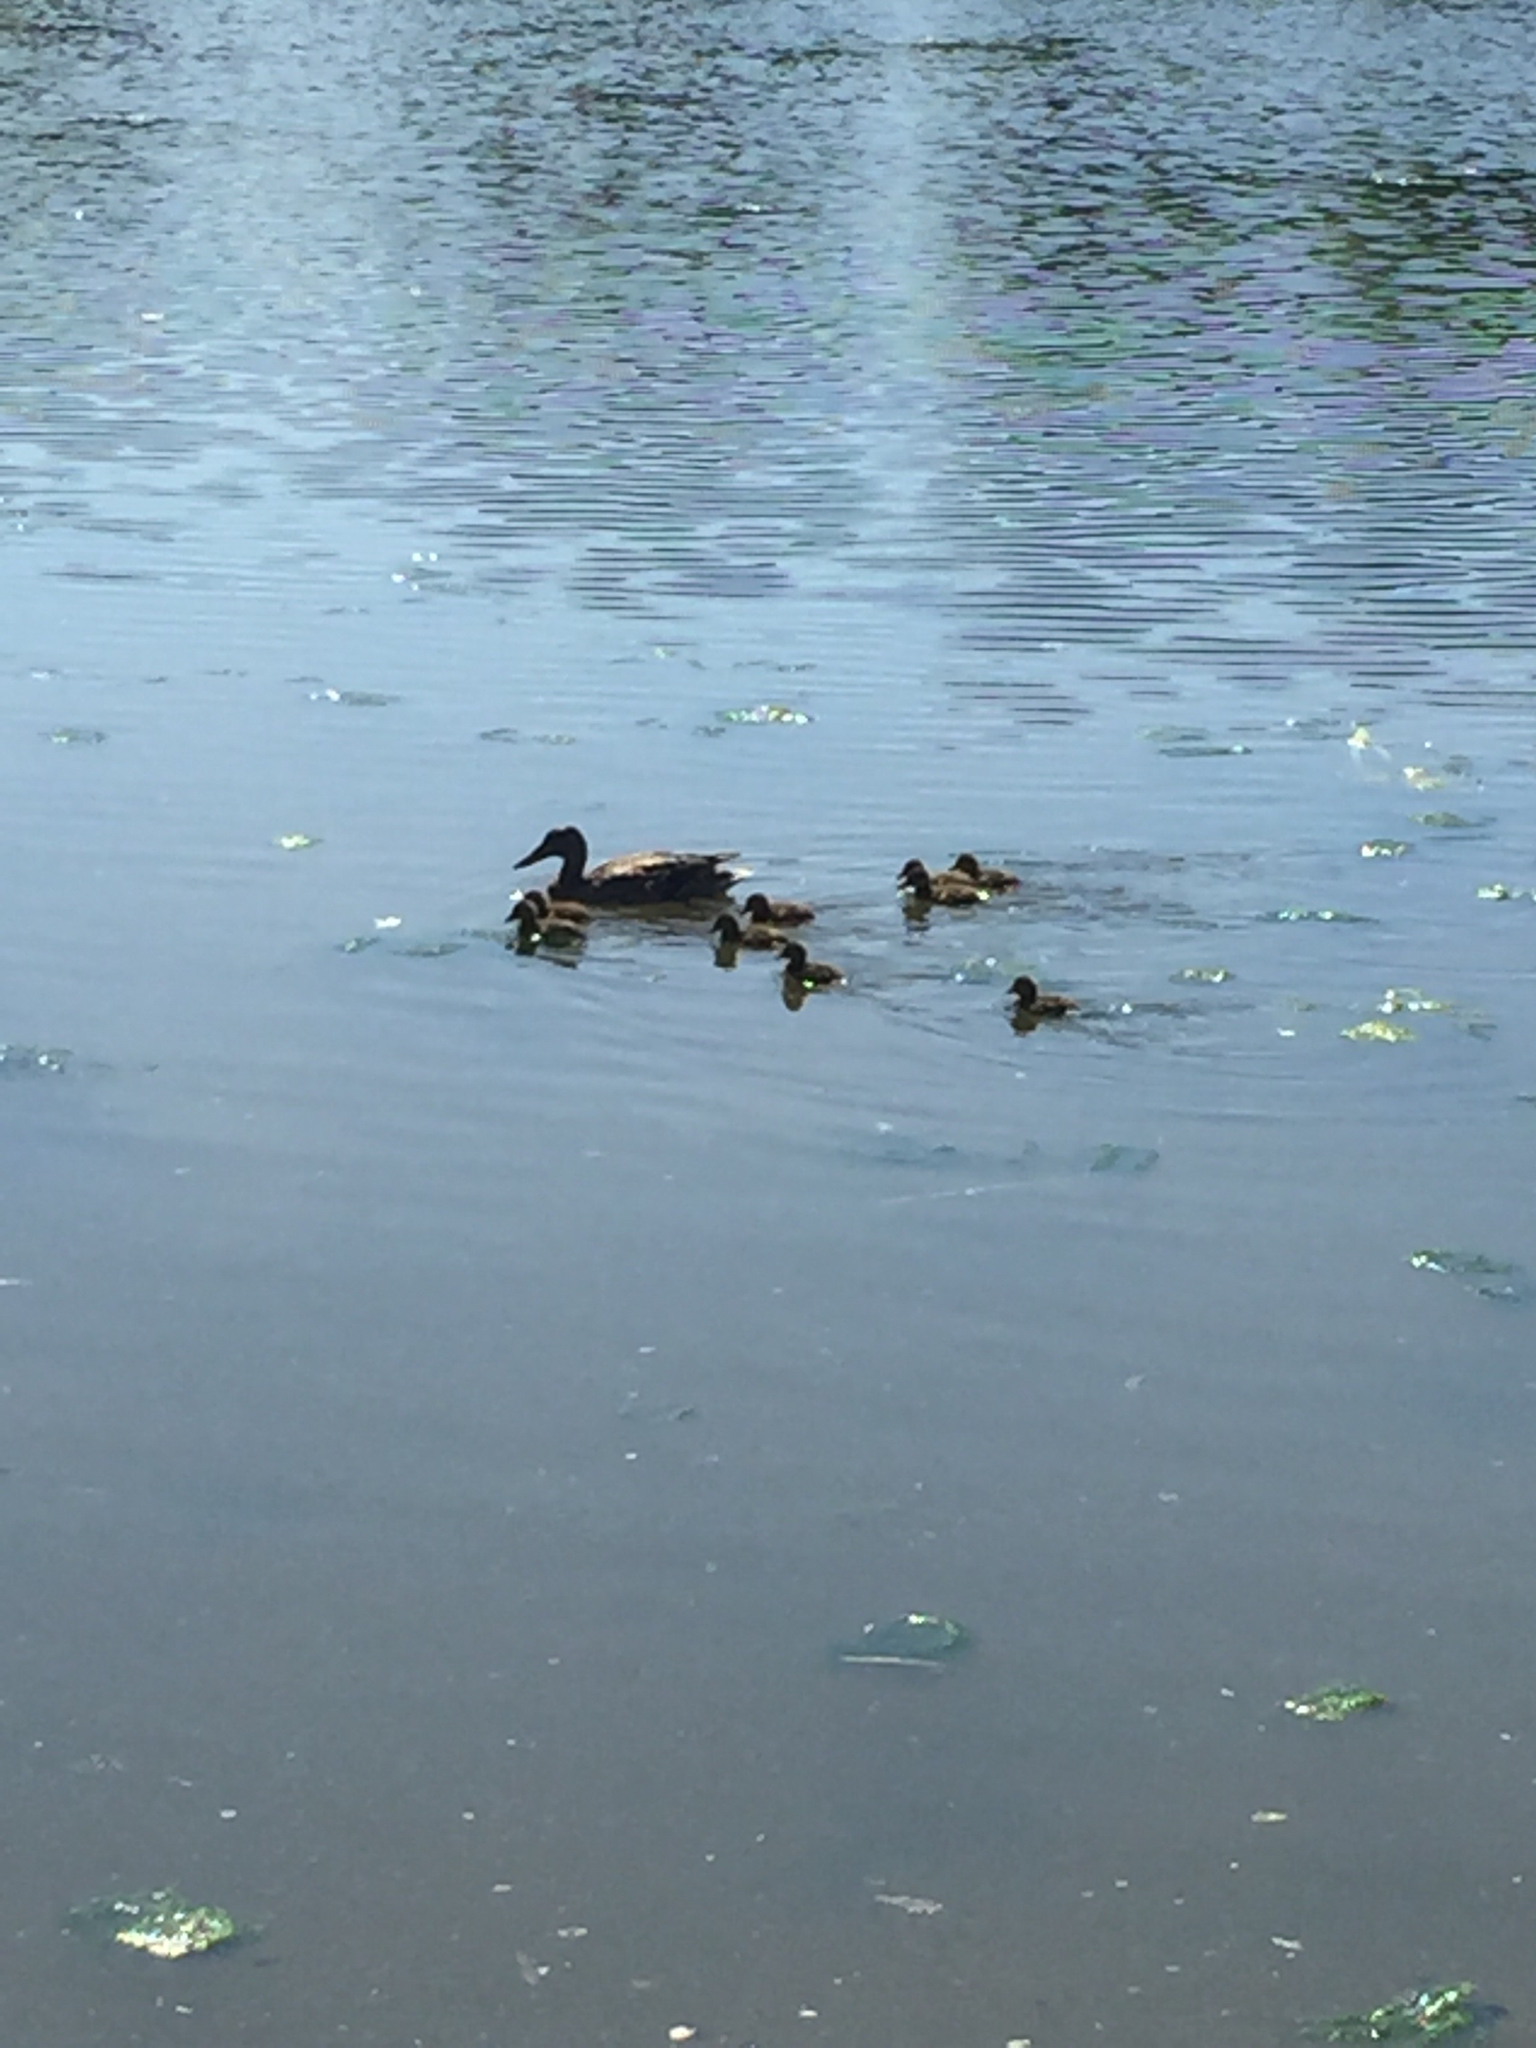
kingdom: Animalia
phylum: Chordata
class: Aves
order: Anseriformes
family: Anatidae
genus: Anas
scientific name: Anas platyrhynchos
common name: Mallard
